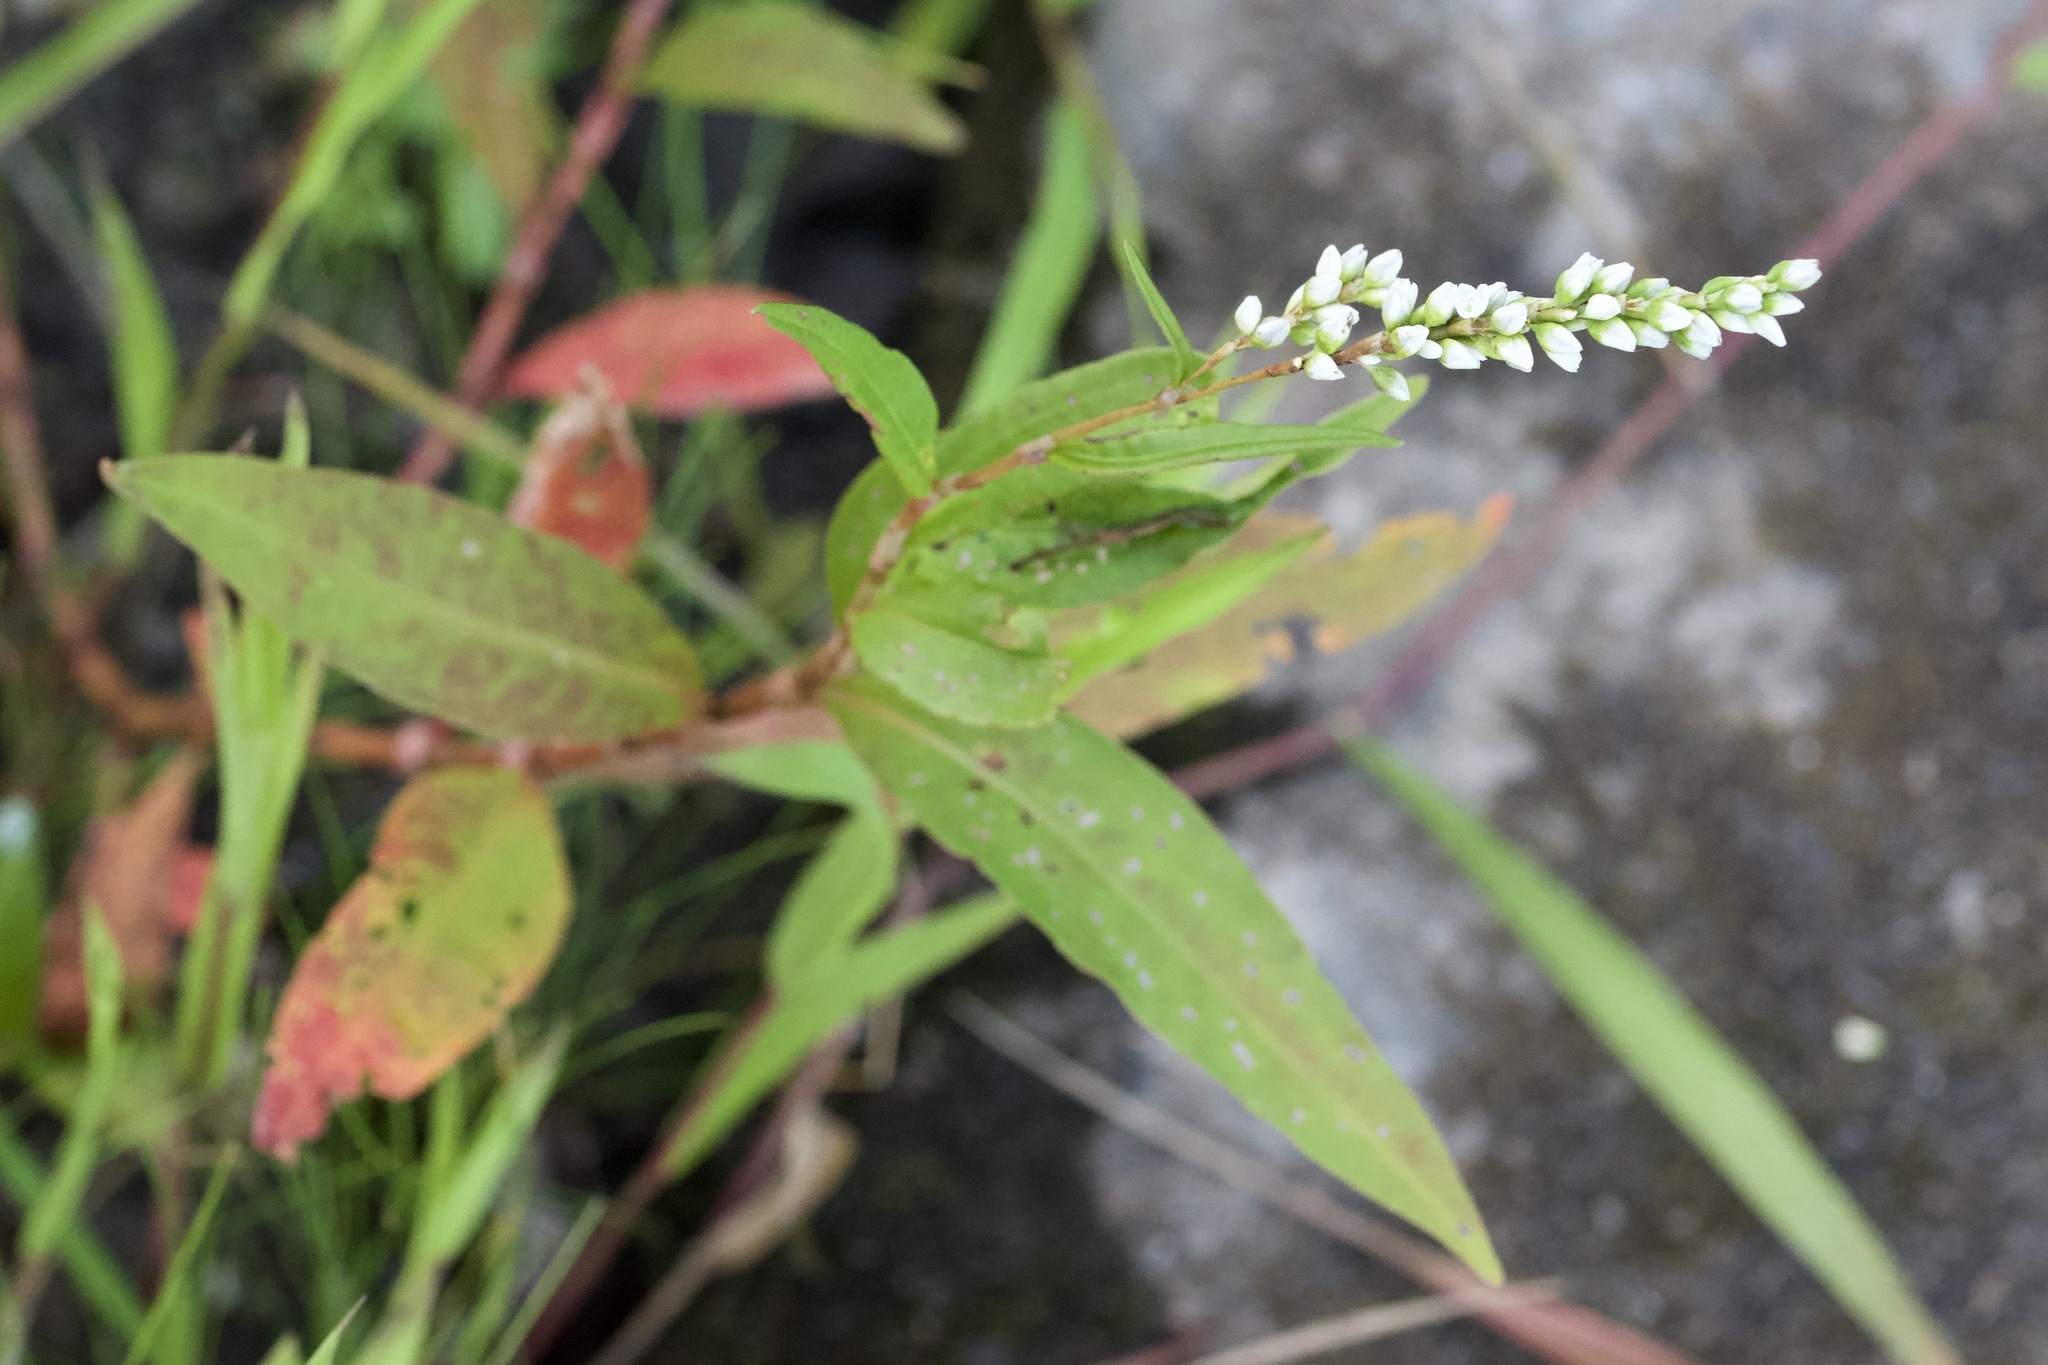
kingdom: Plantae
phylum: Tracheophyta
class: Magnoliopsida
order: Caryophyllales
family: Polygonaceae
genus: Persicaria
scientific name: Persicaria hydropiperoides
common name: Swamp smartweed
